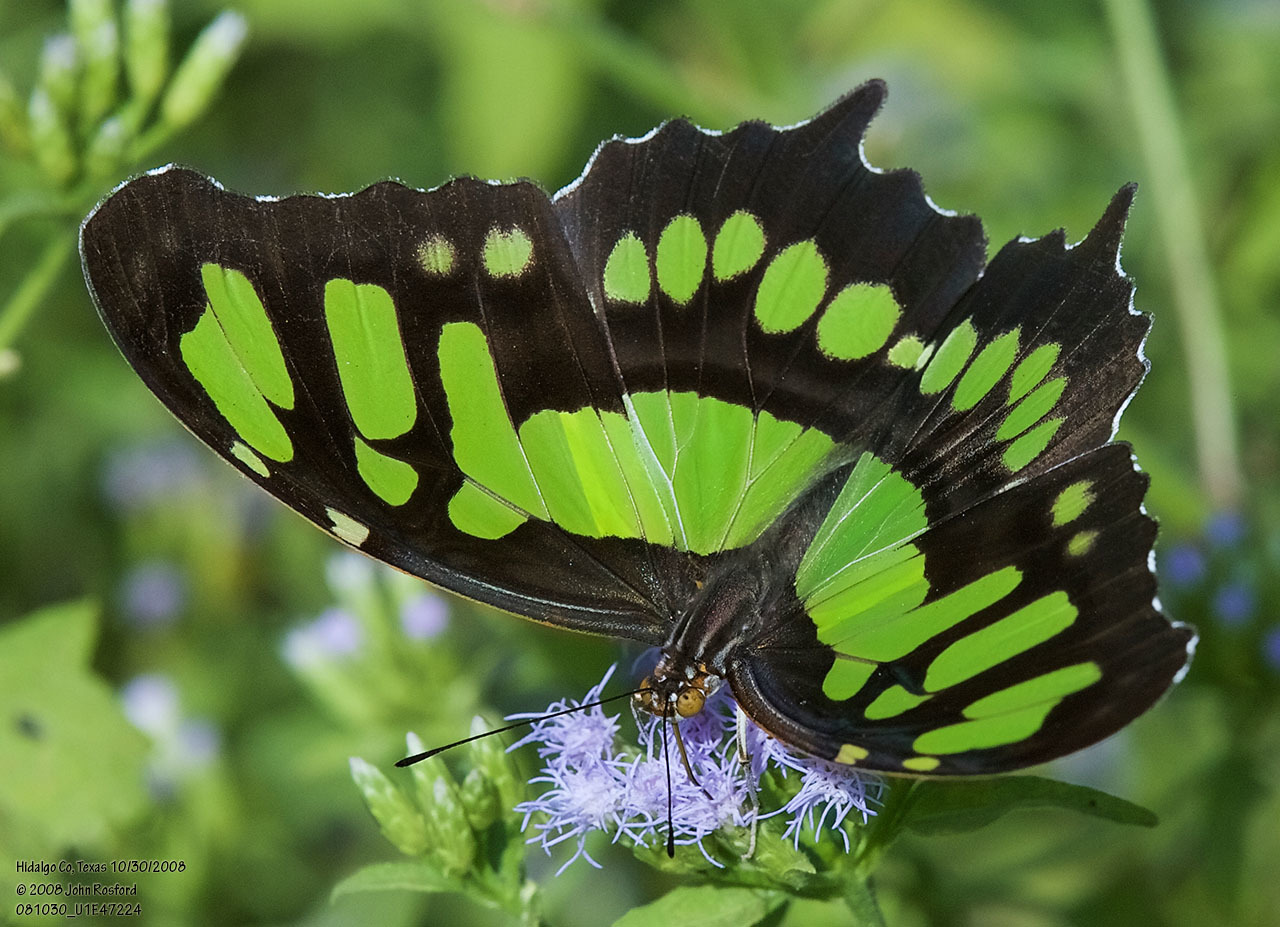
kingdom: Animalia
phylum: Arthropoda
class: Insecta
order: Lepidoptera
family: Nymphalidae
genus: Siproeta
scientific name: Siproeta stelenes
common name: Malachite
